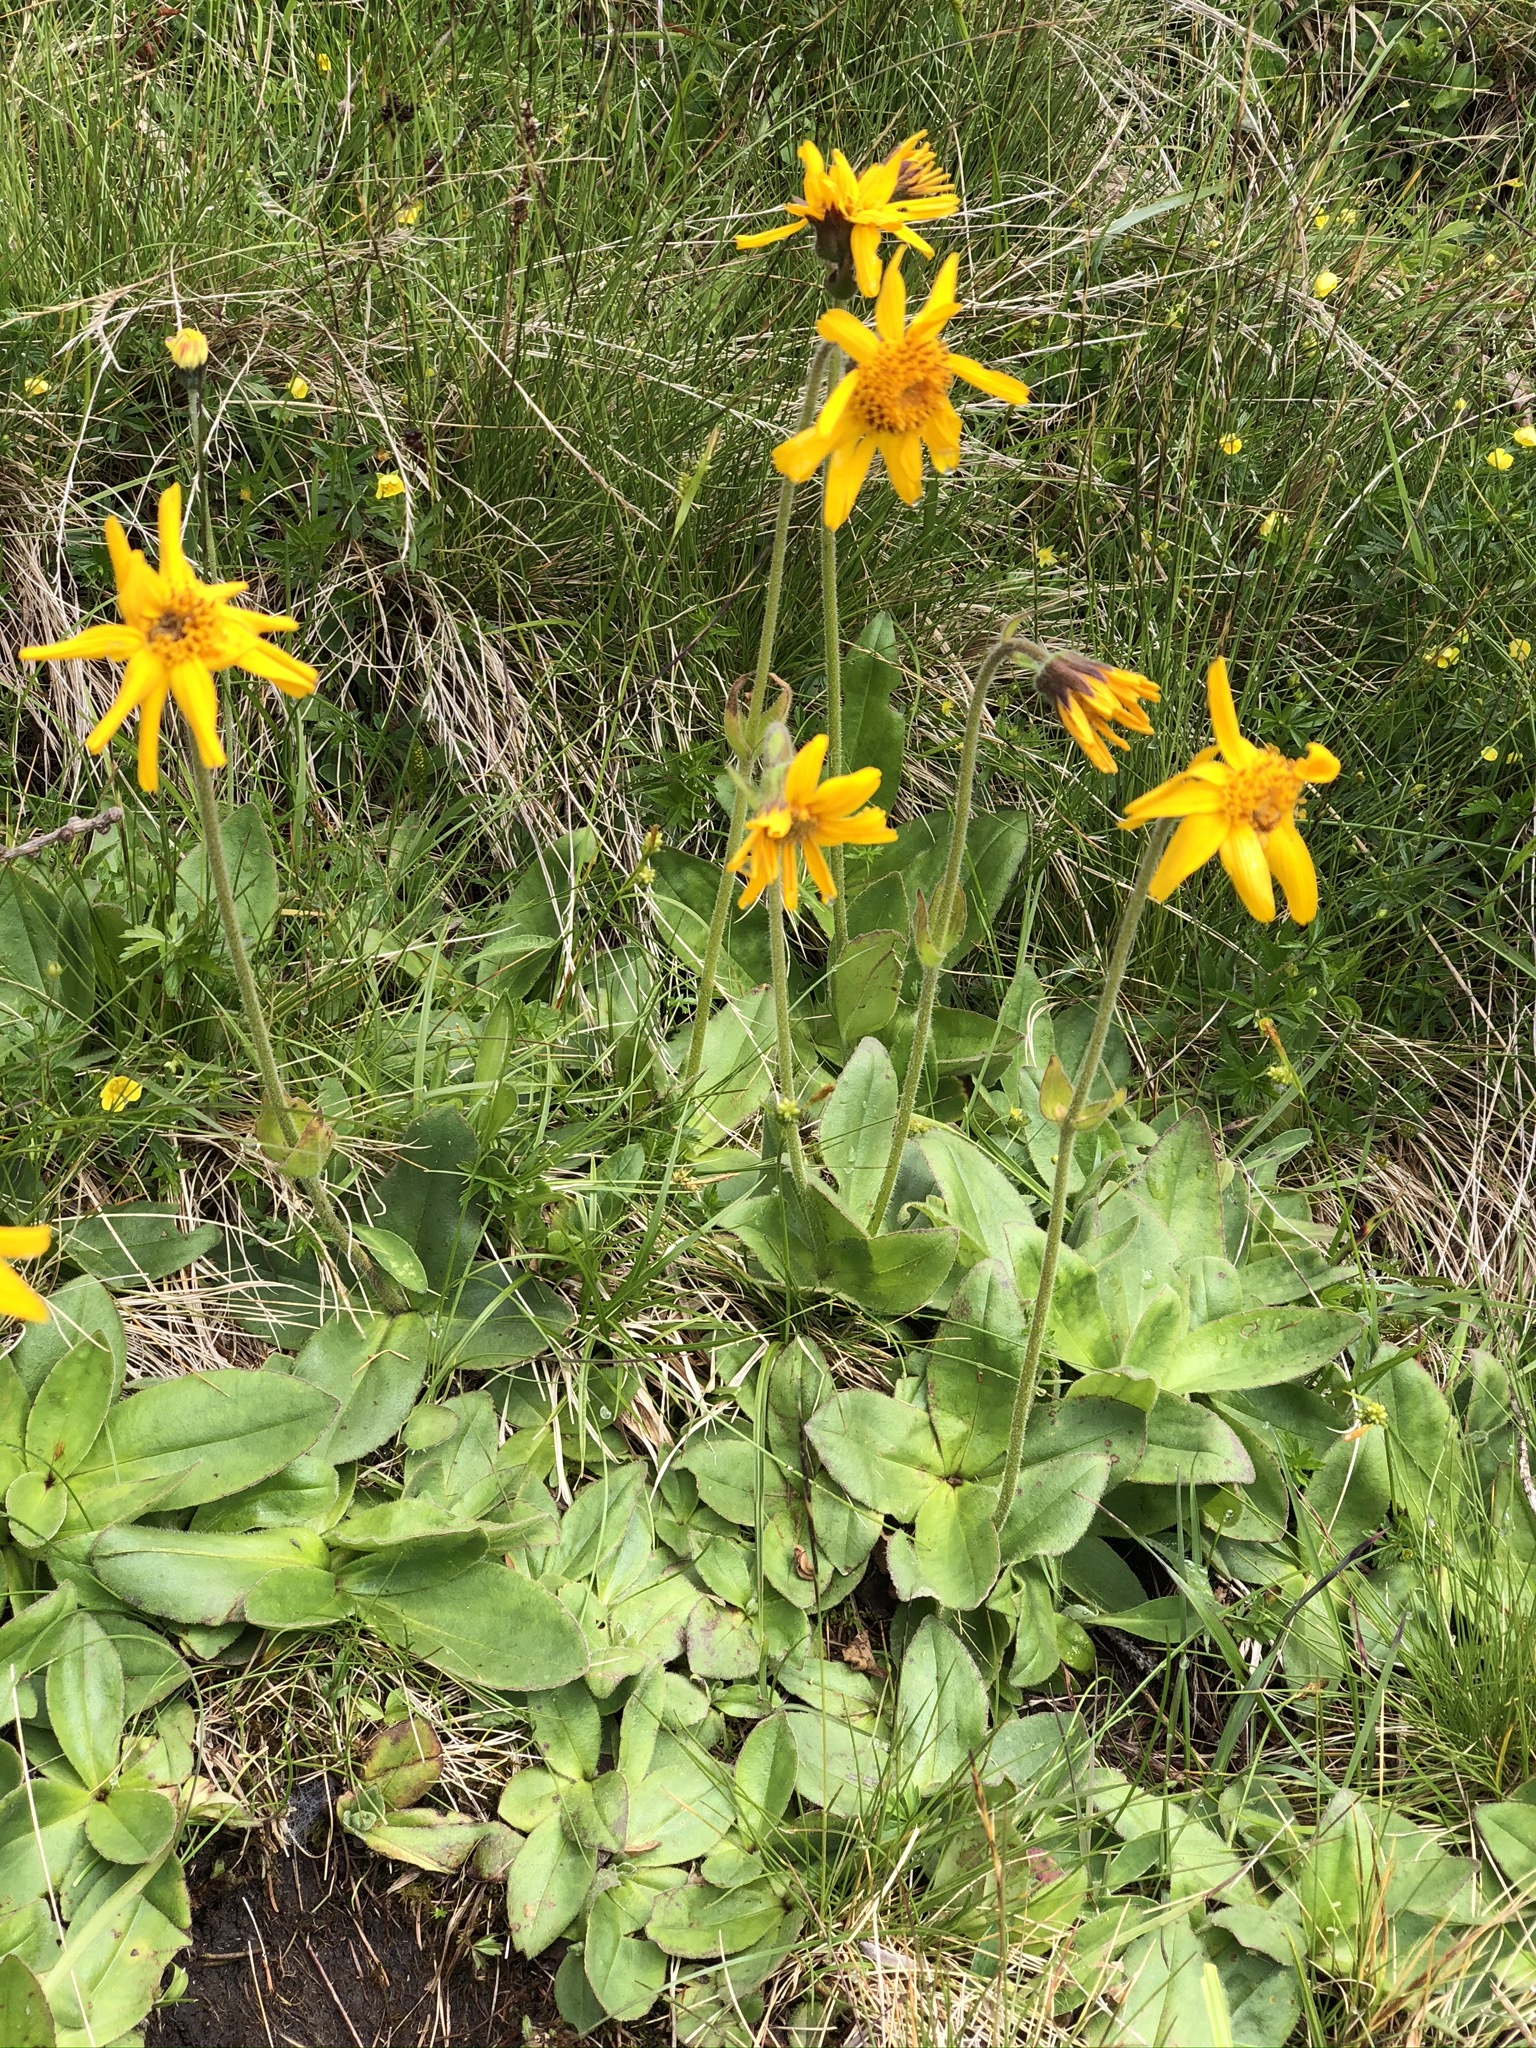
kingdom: Plantae
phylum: Tracheophyta
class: Magnoliopsida
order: Asterales
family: Asteraceae
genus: Arnica
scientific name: Arnica montana
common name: Leopard's bane
